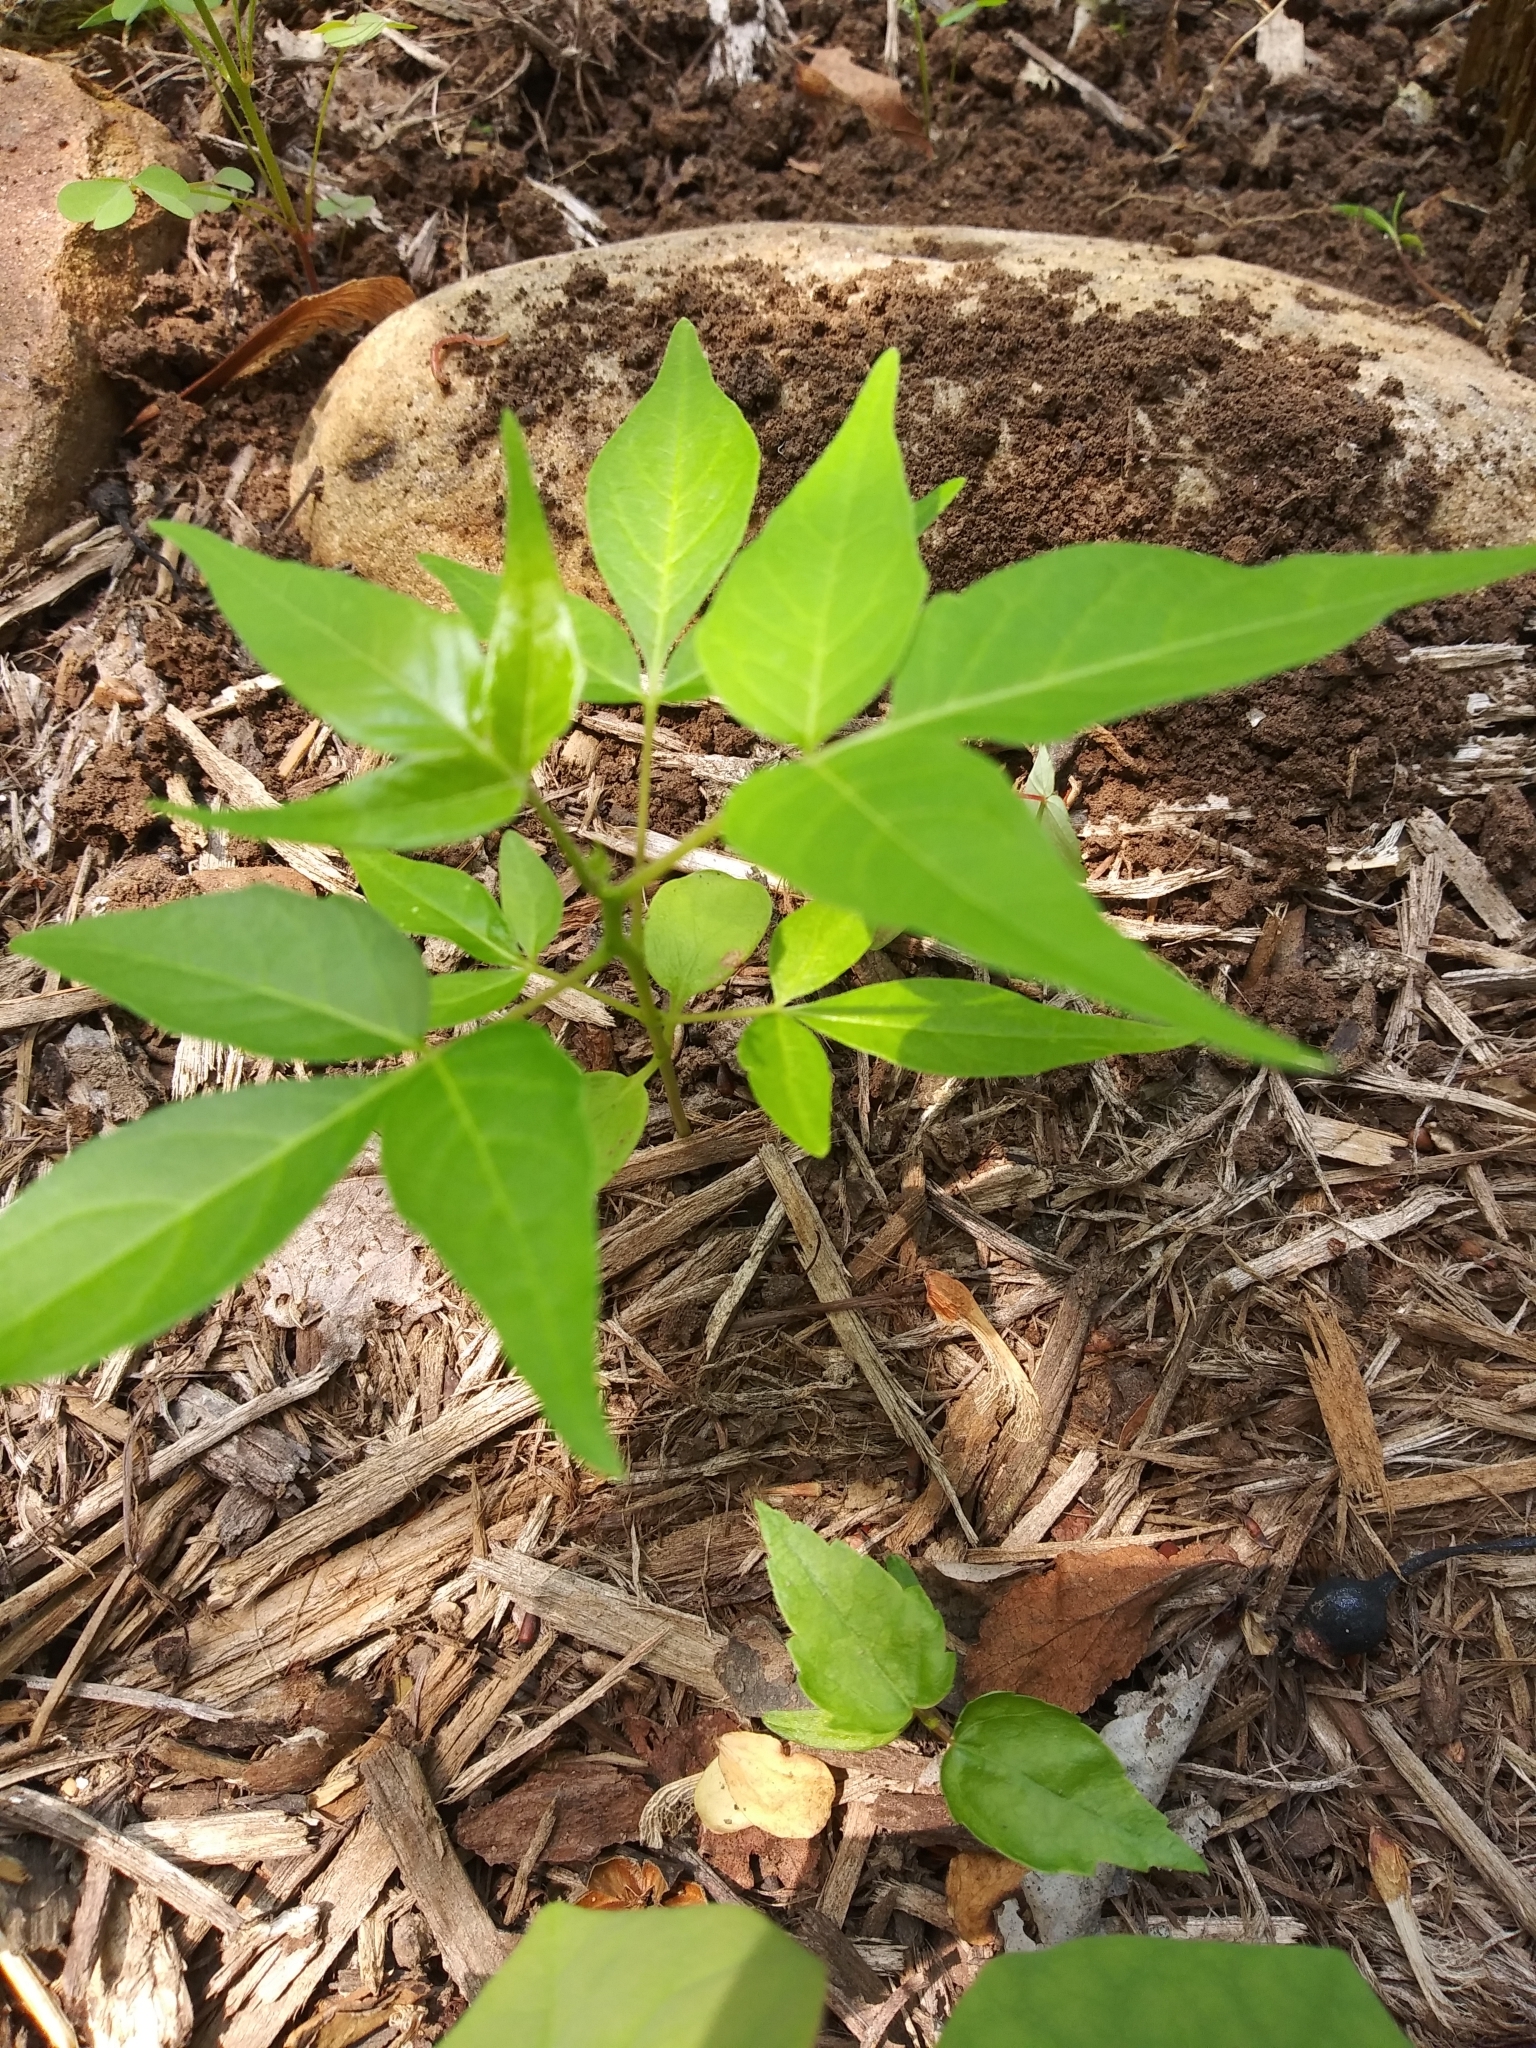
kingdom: Plantae
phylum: Tracheophyta
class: Magnoliopsida
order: Sapindales
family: Simaroubaceae
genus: Ailanthus
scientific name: Ailanthus altissima
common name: Tree-of-heaven
